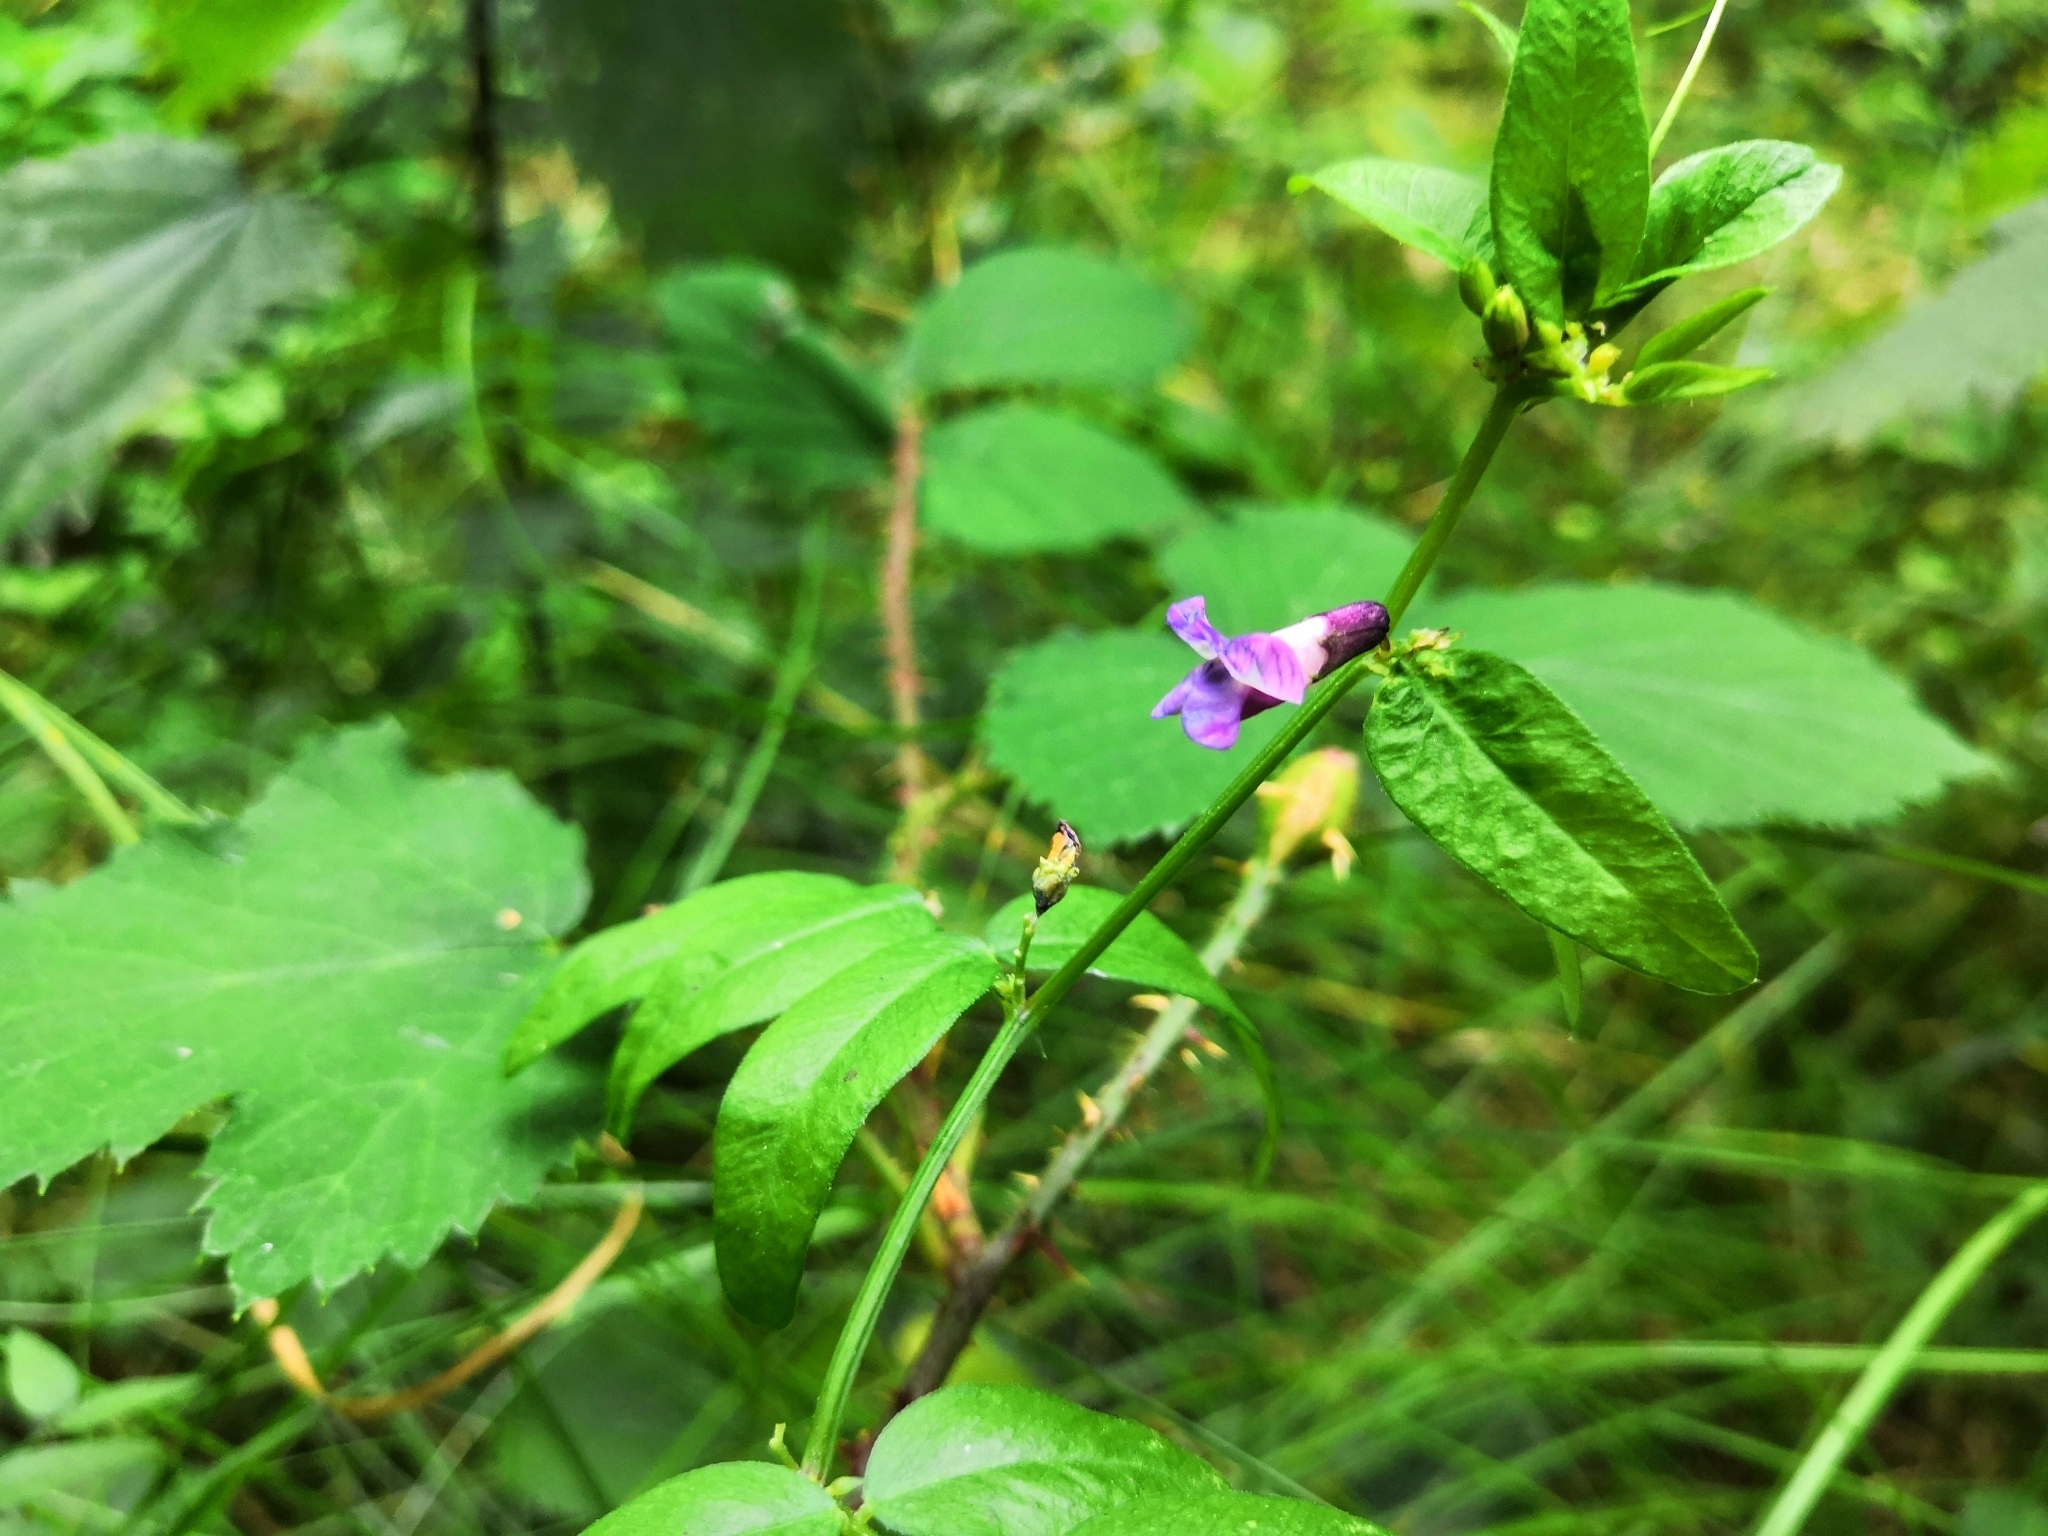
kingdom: Plantae
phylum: Tracheophyta
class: Magnoliopsida
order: Fabales
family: Fabaceae
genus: Vicia
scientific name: Vicia sepium
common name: Bush vetch
